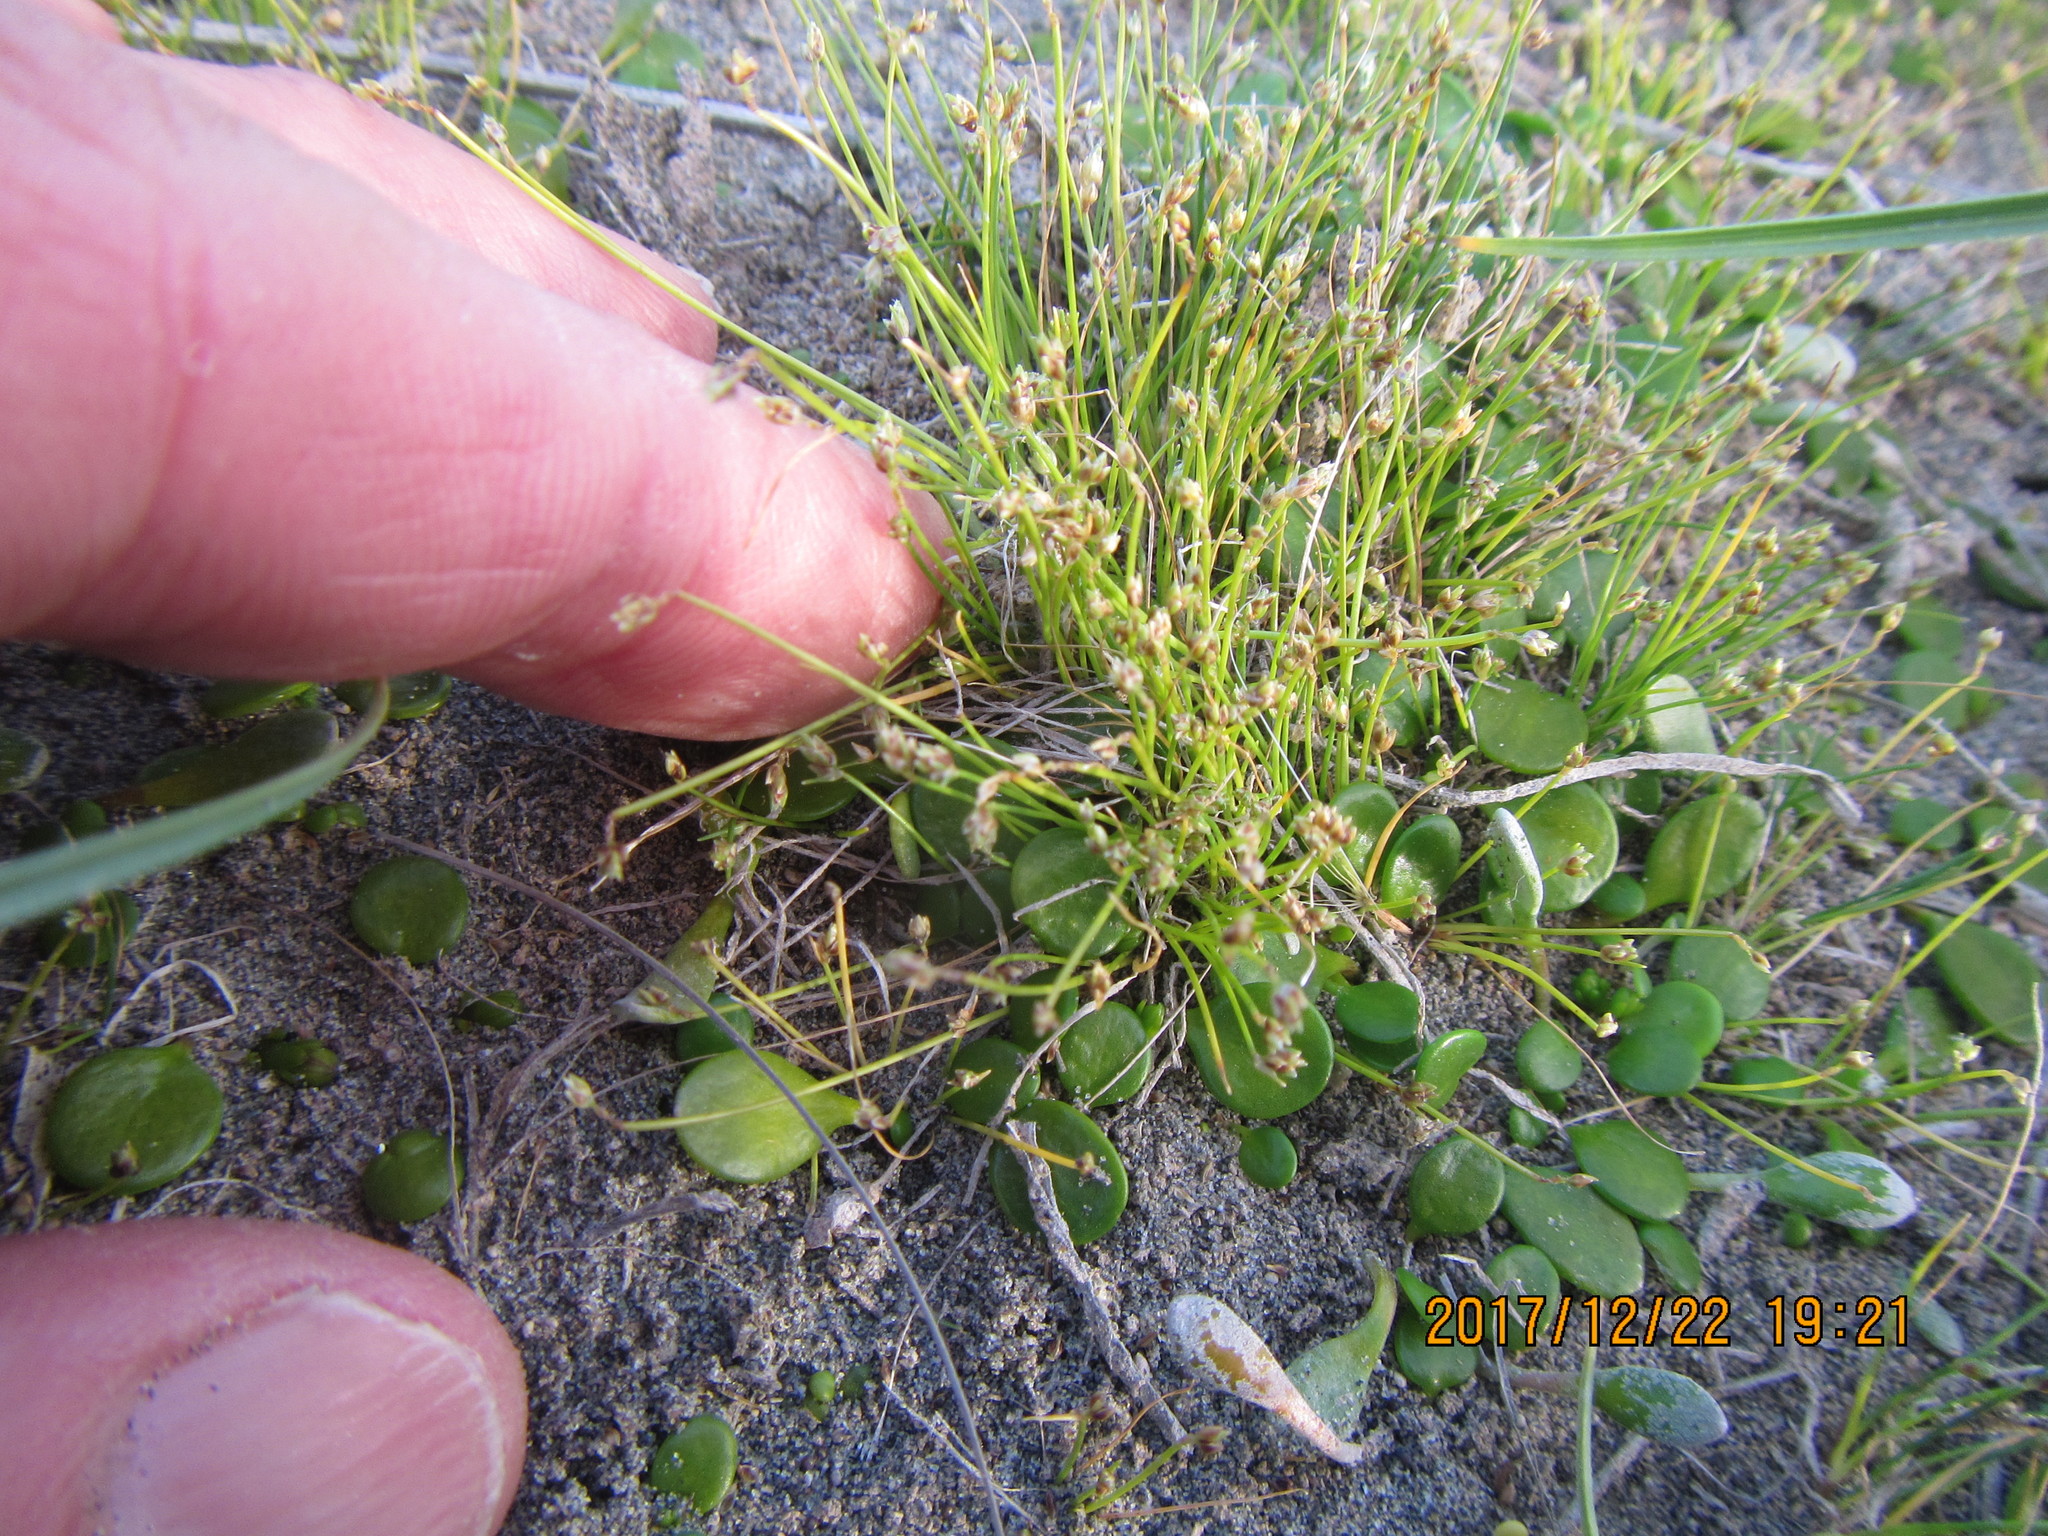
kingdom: Plantae
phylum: Tracheophyta
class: Liliopsida
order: Poales
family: Cyperaceae
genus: Isolepis
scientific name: Isolepis cernua
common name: Slender club-rush
